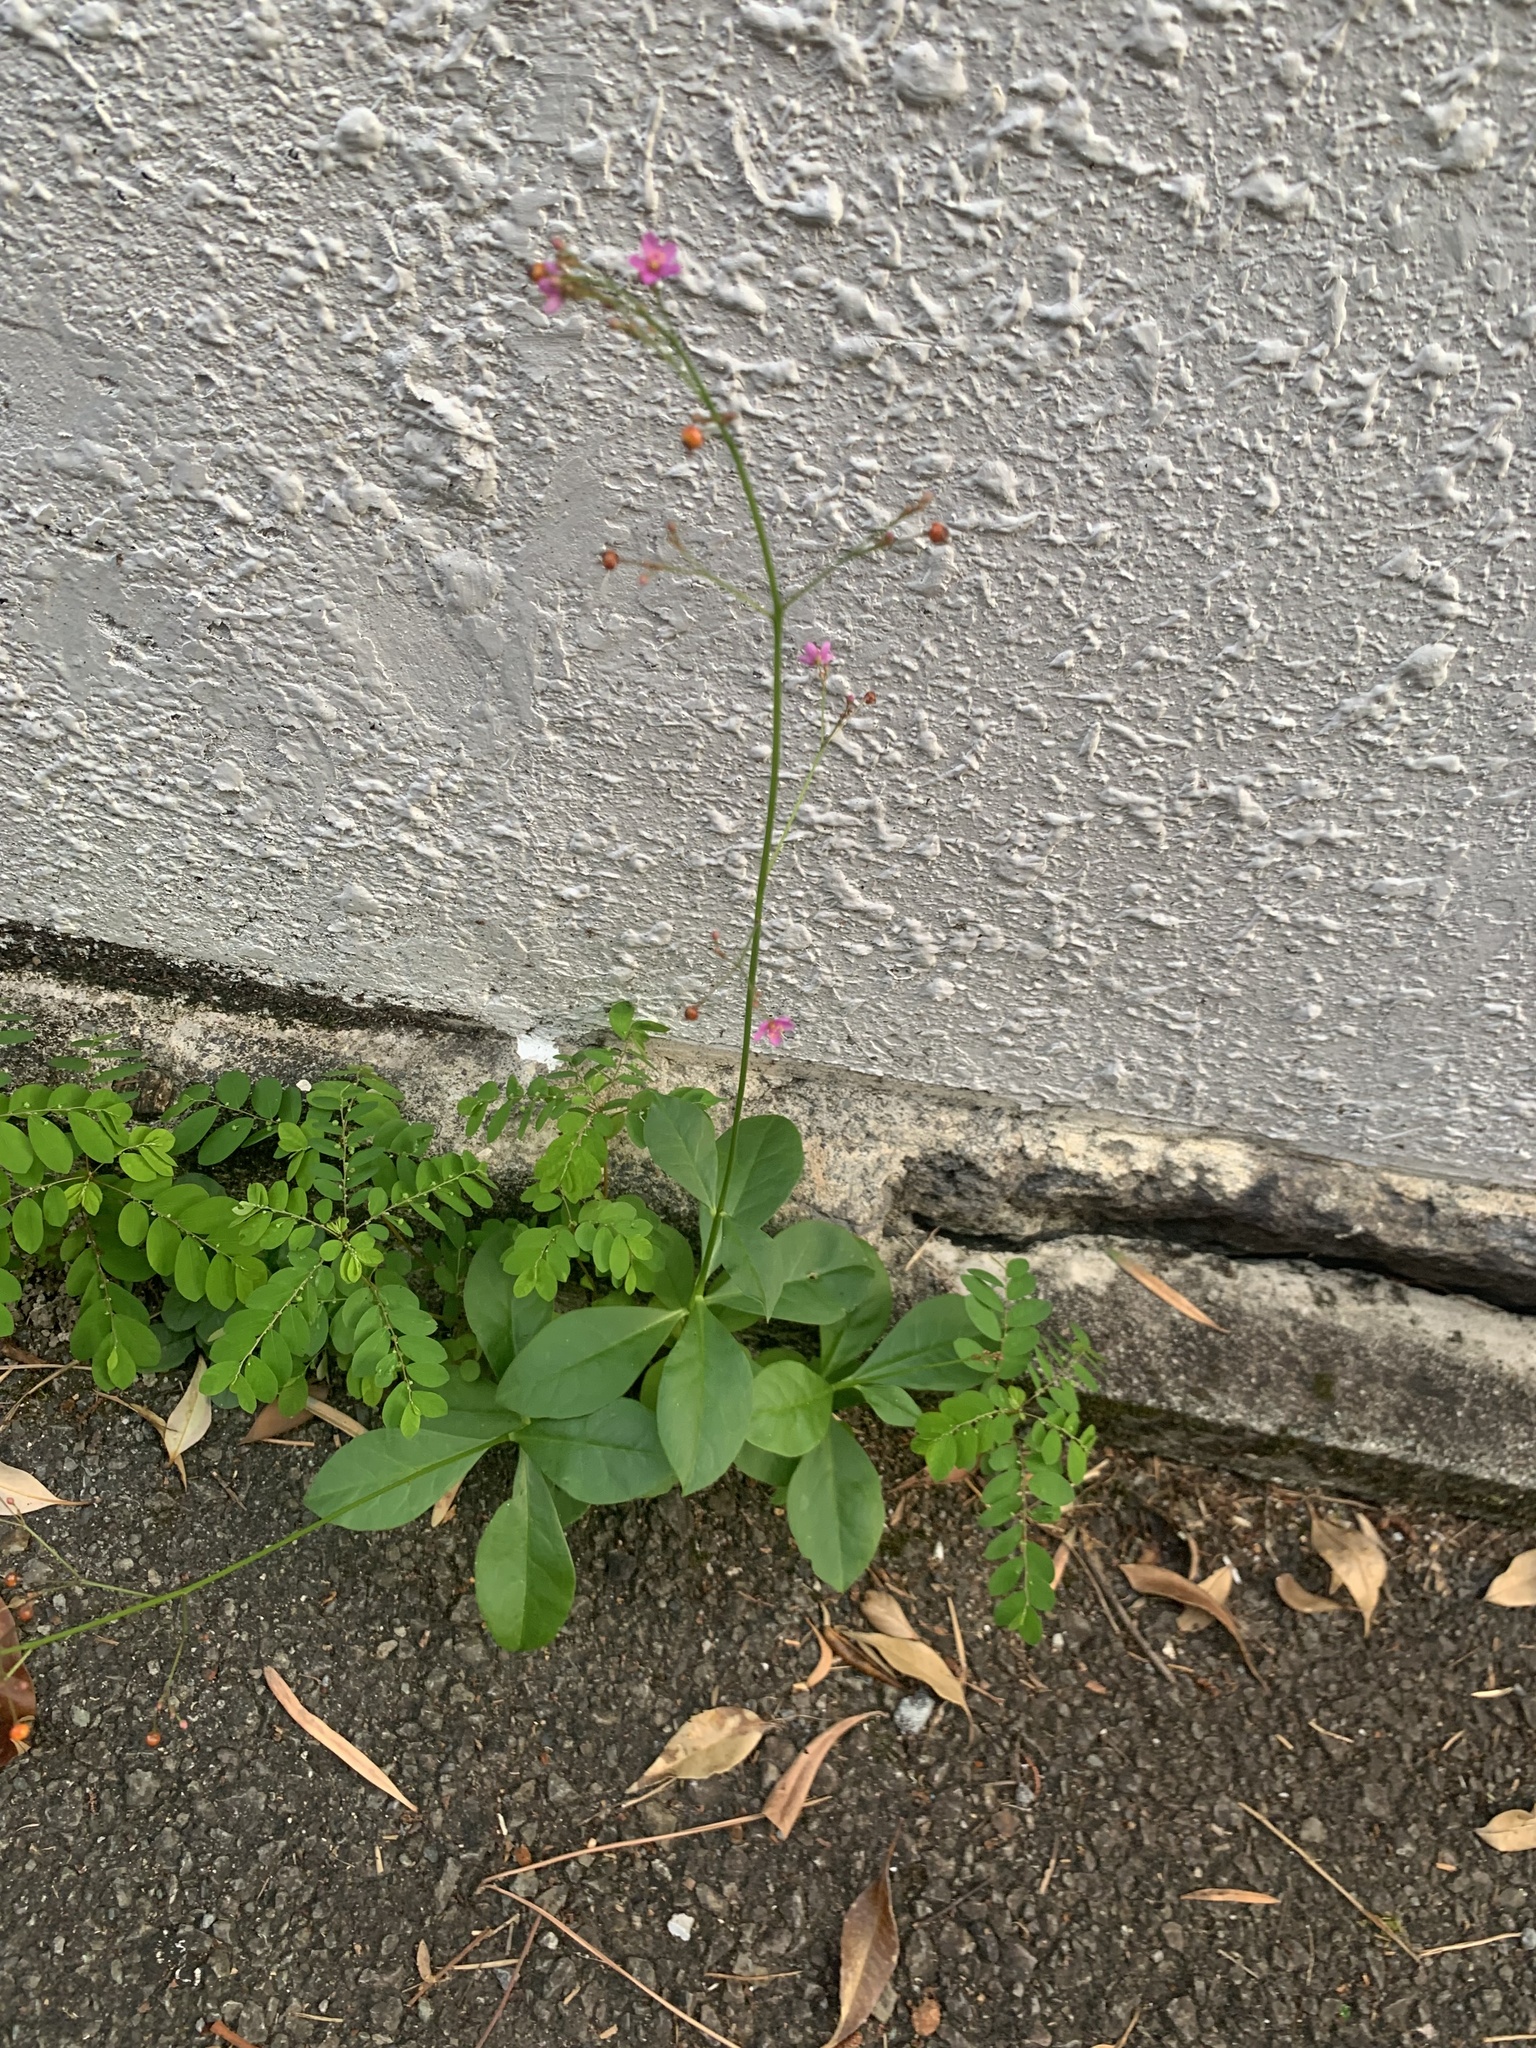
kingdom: Plantae
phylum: Tracheophyta
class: Magnoliopsida
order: Caryophyllales
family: Talinaceae
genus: Talinum
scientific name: Talinum paniculatum
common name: Jewels of opar
